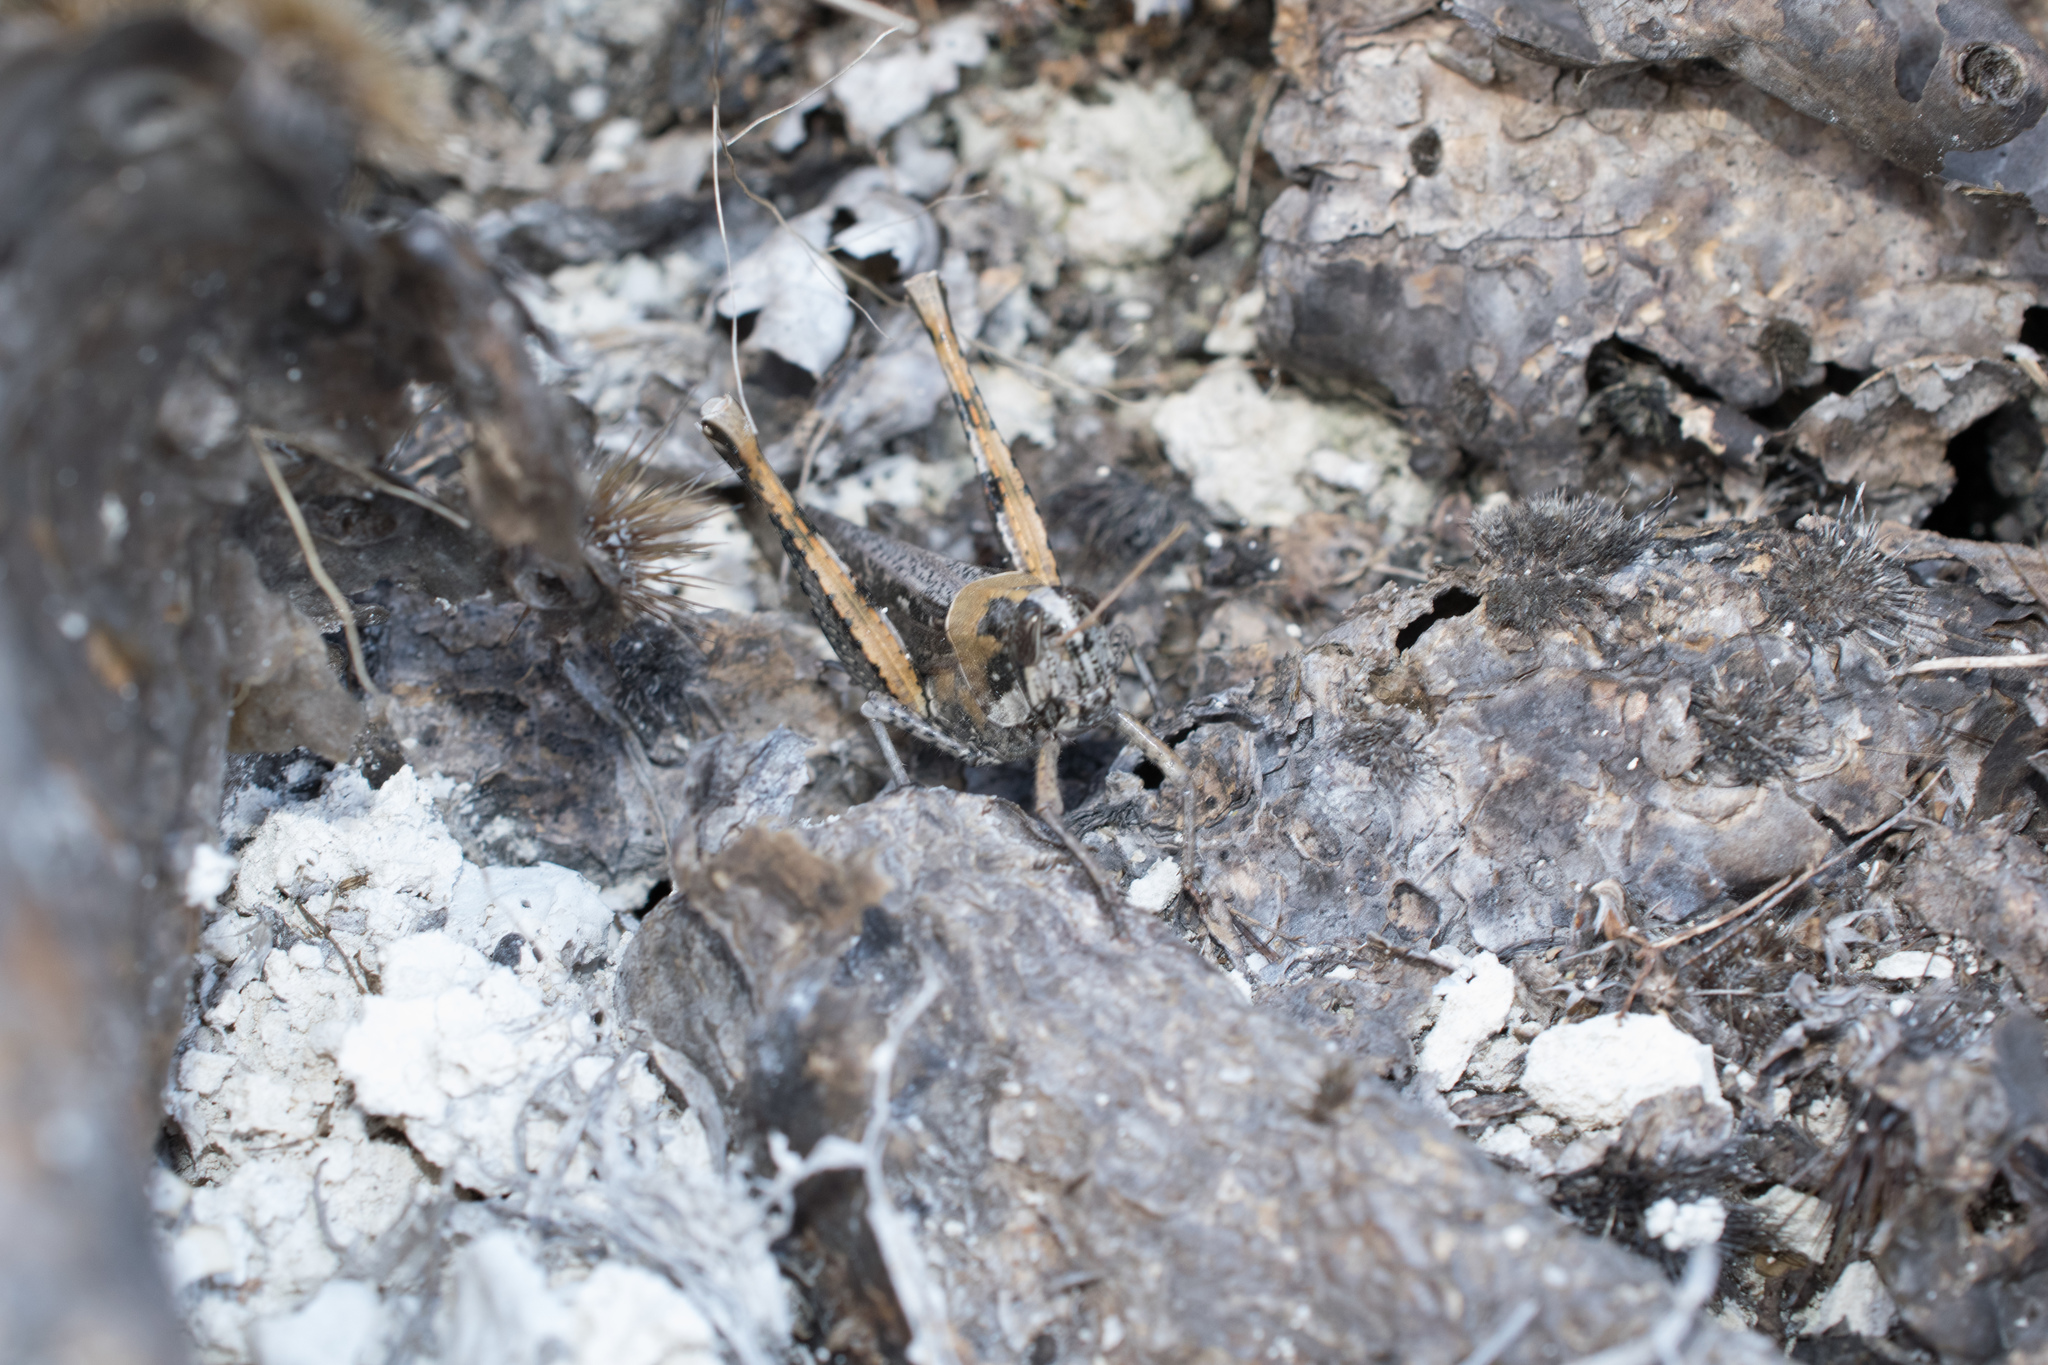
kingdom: Animalia
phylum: Arthropoda
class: Insecta
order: Orthoptera
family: Acrididae
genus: Schistocerca
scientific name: Schistocerca nitens
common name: Vagrant grasshopper
